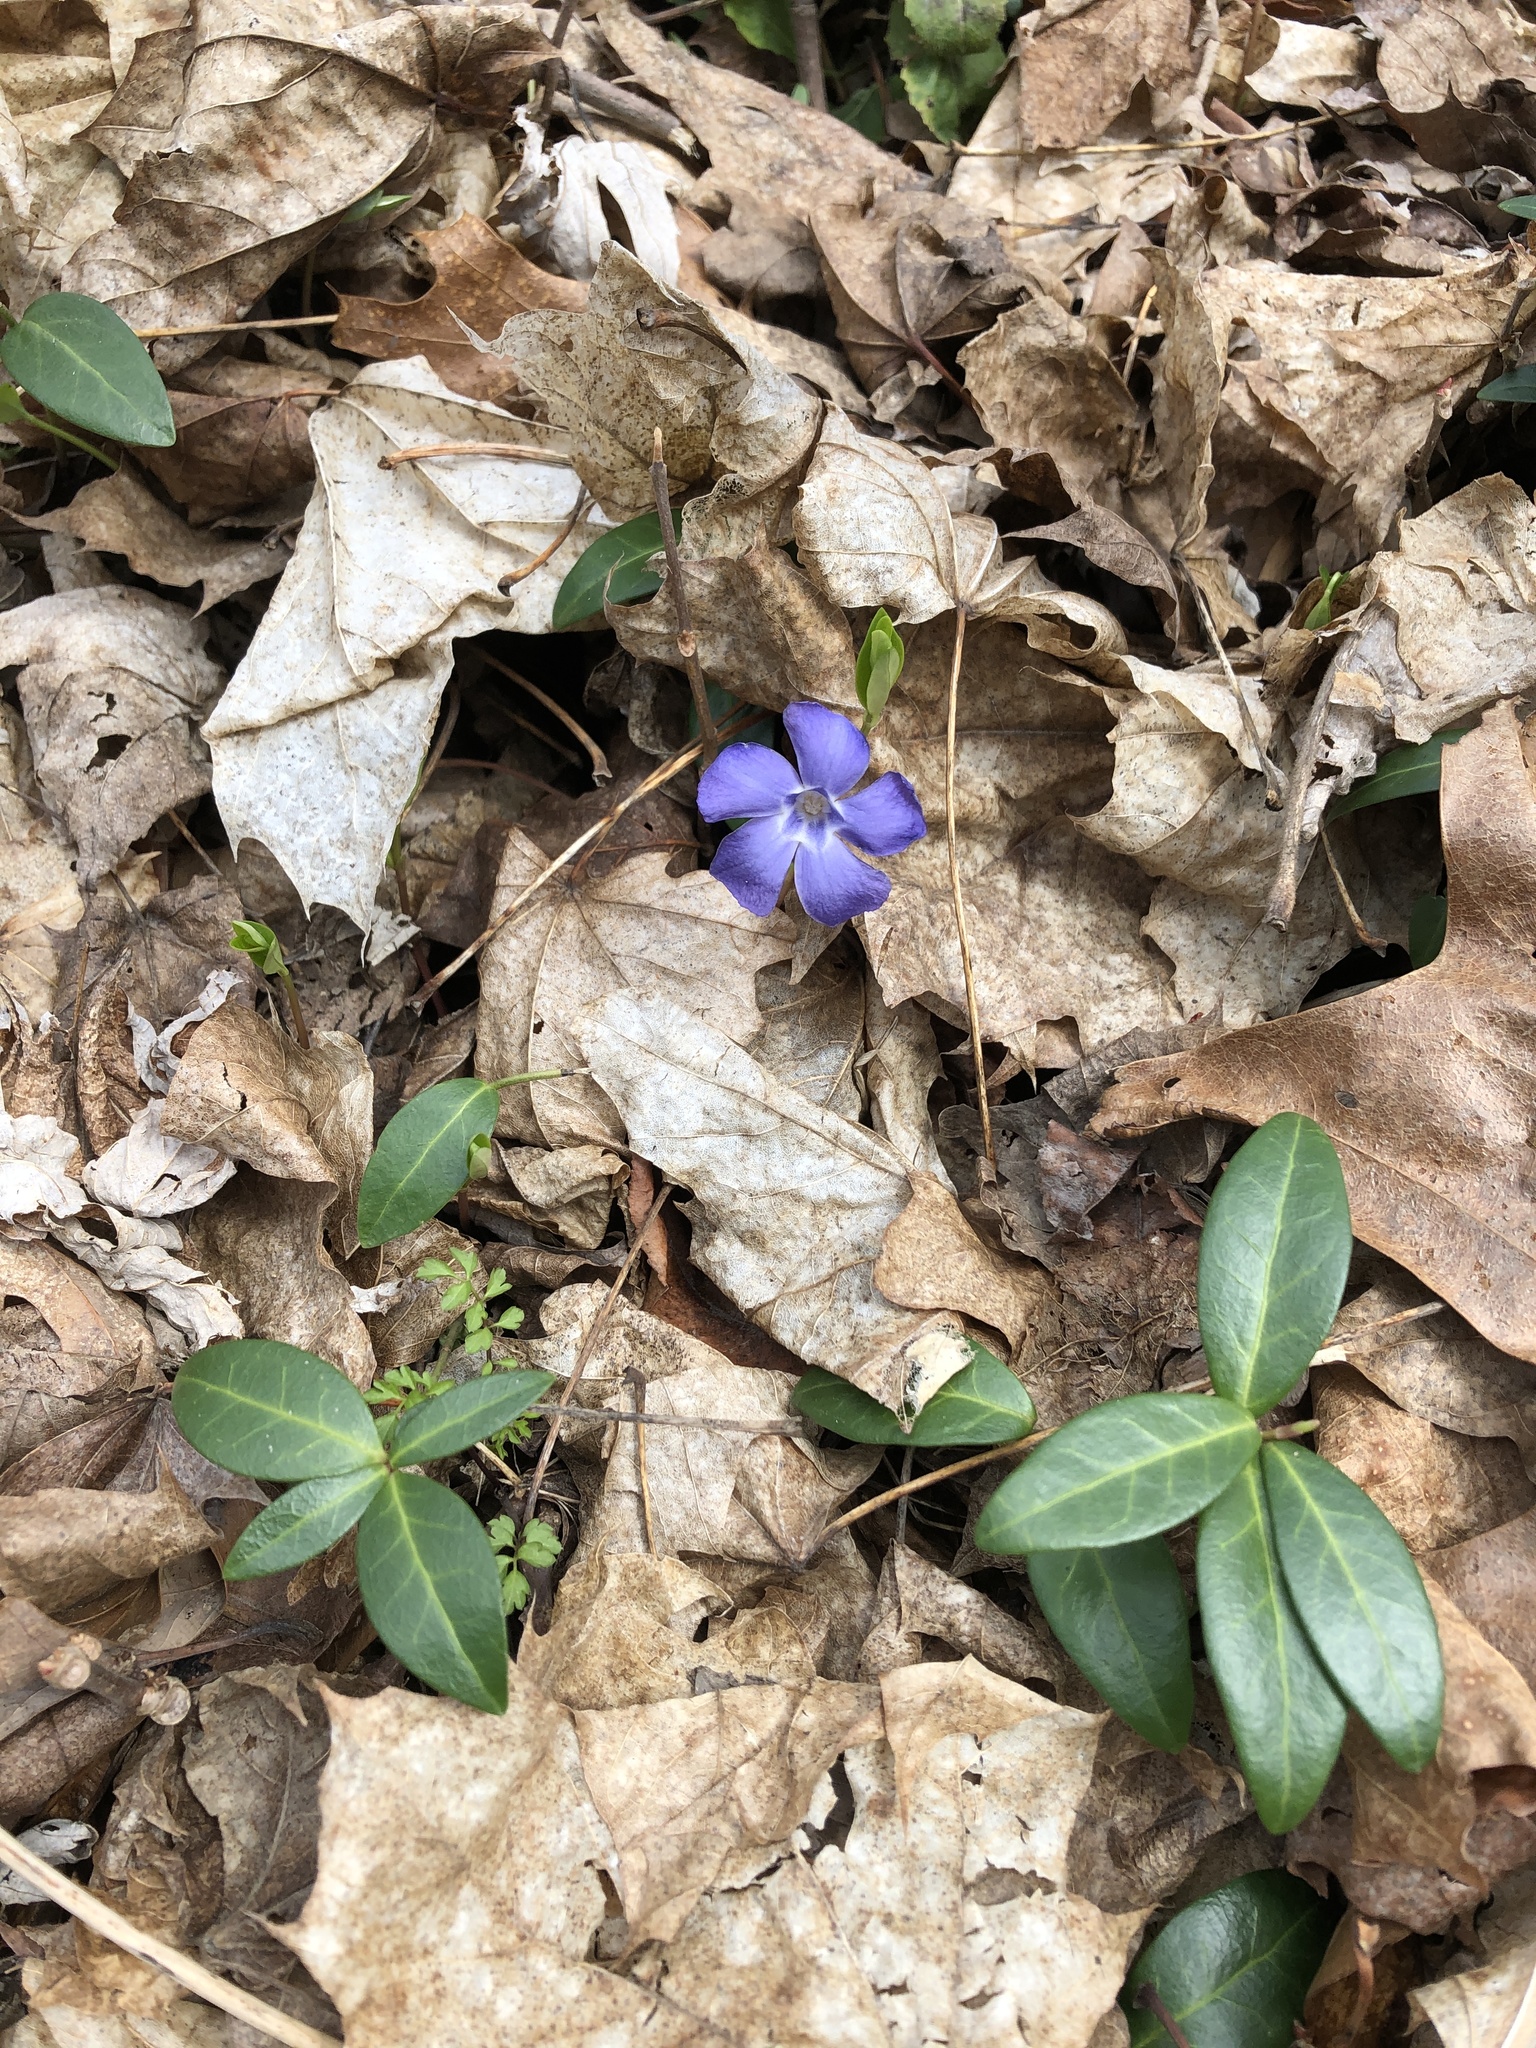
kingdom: Plantae
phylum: Tracheophyta
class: Magnoliopsida
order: Gentianales
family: Apocynaceae
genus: Vinca
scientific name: Vinca minor
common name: Lesser periwinkle
